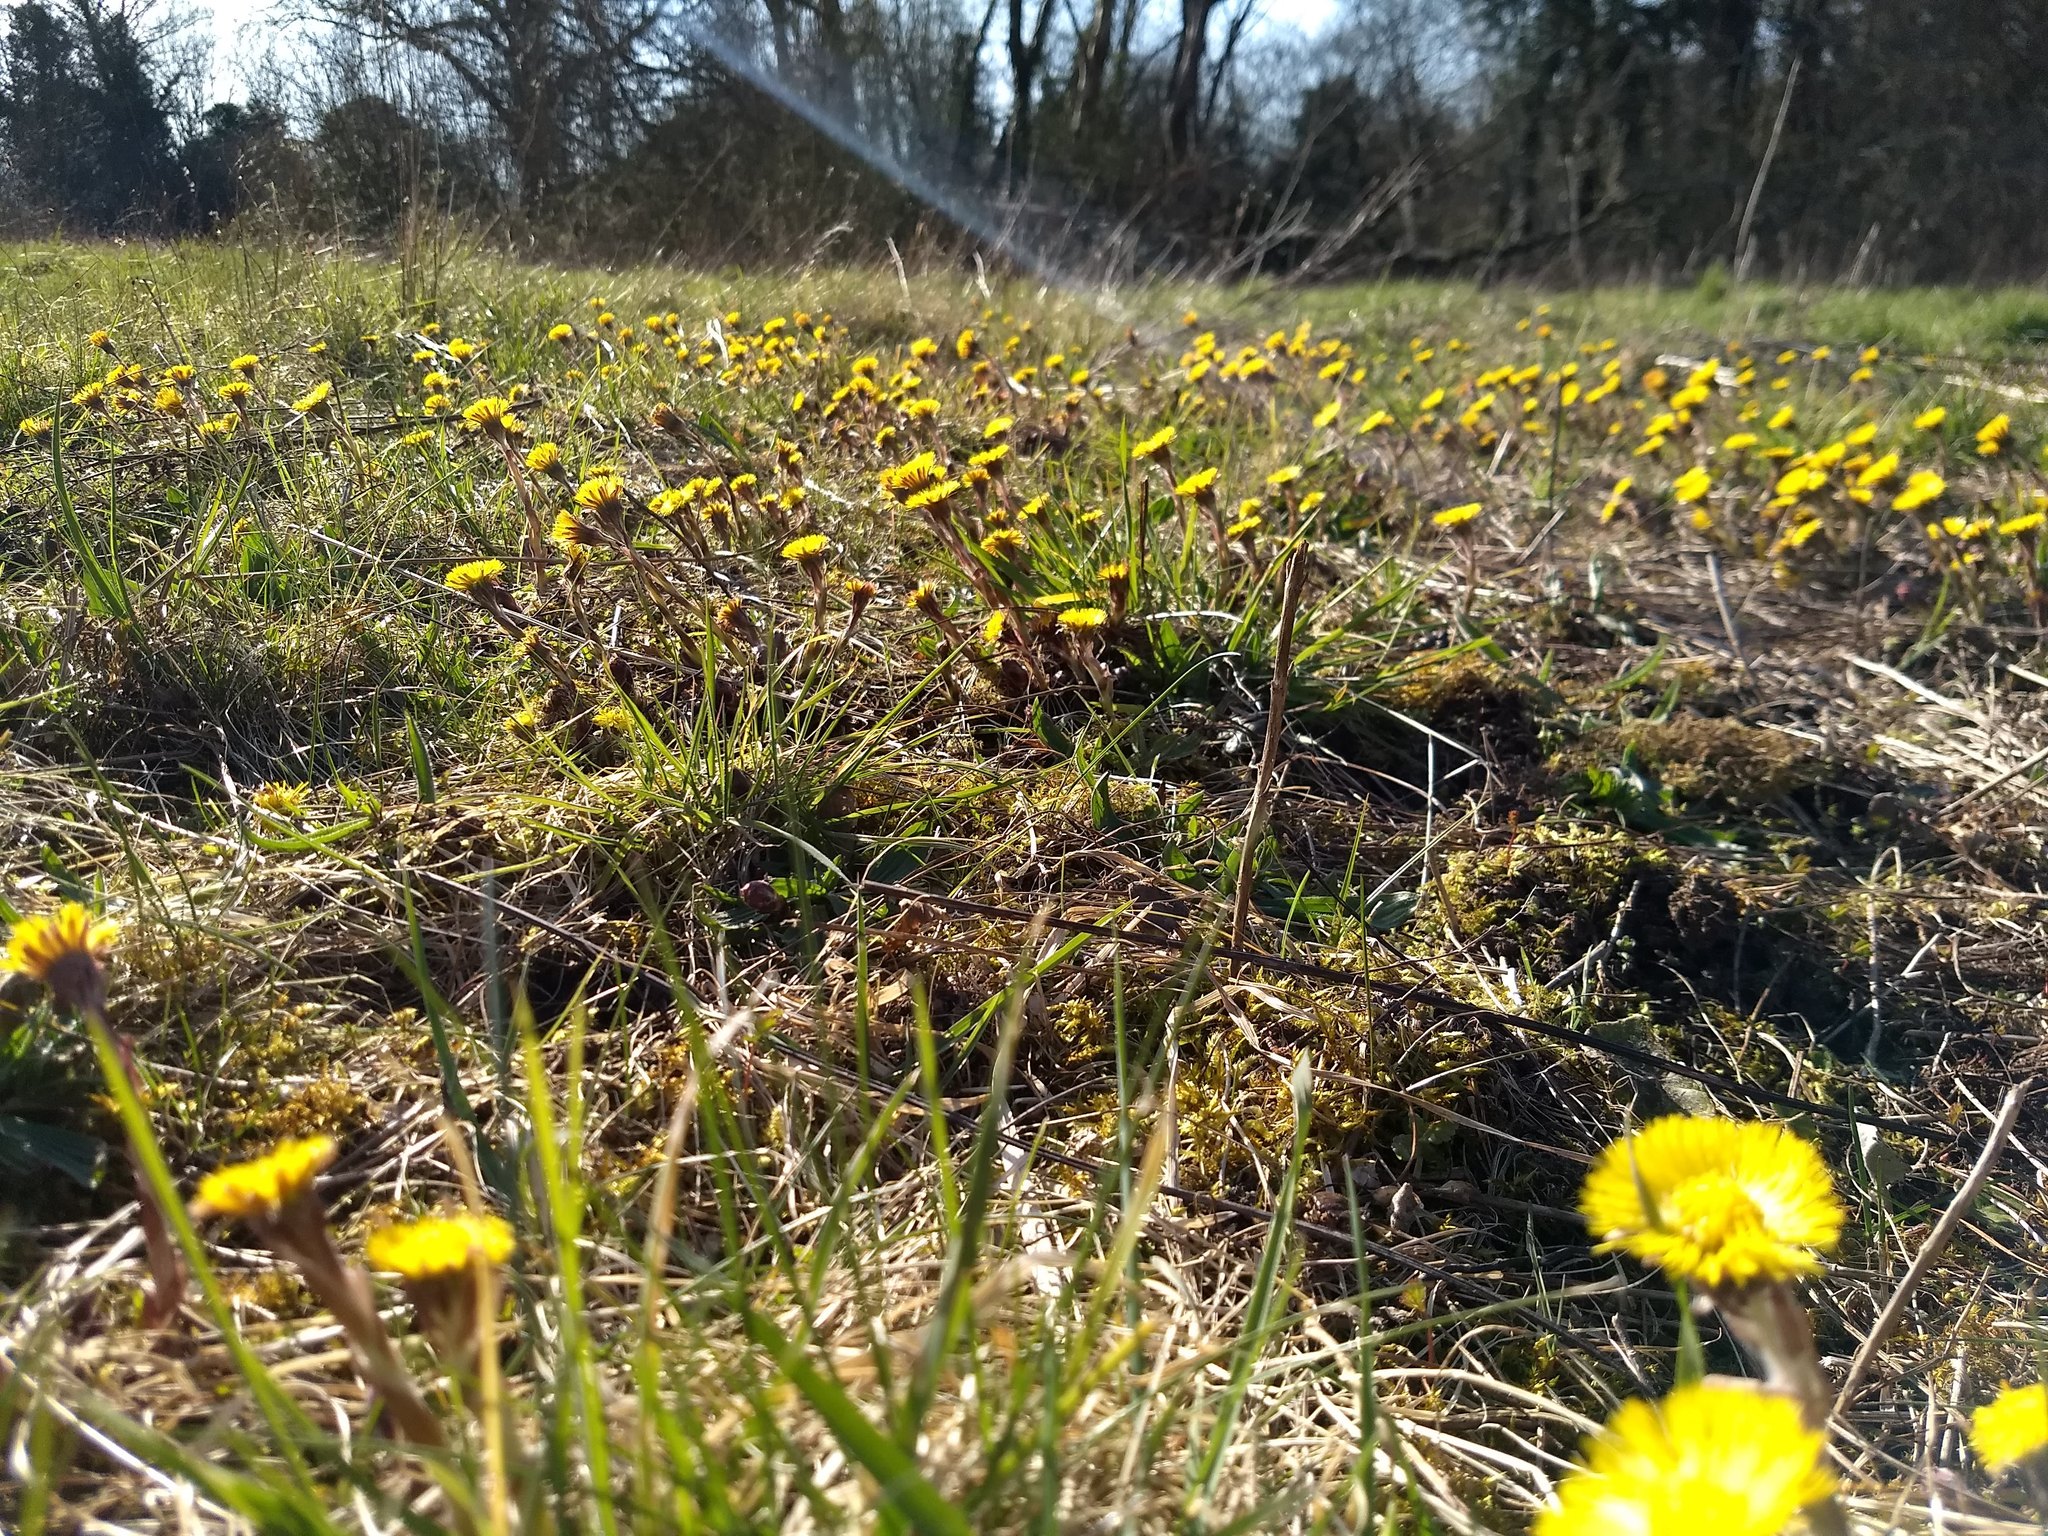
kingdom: Plantae
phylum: Tracheophyta
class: Magnoliopsida
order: Asterales
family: Asteraceae
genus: Tussilago
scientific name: Tussilago farfara
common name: Coltsfoot
